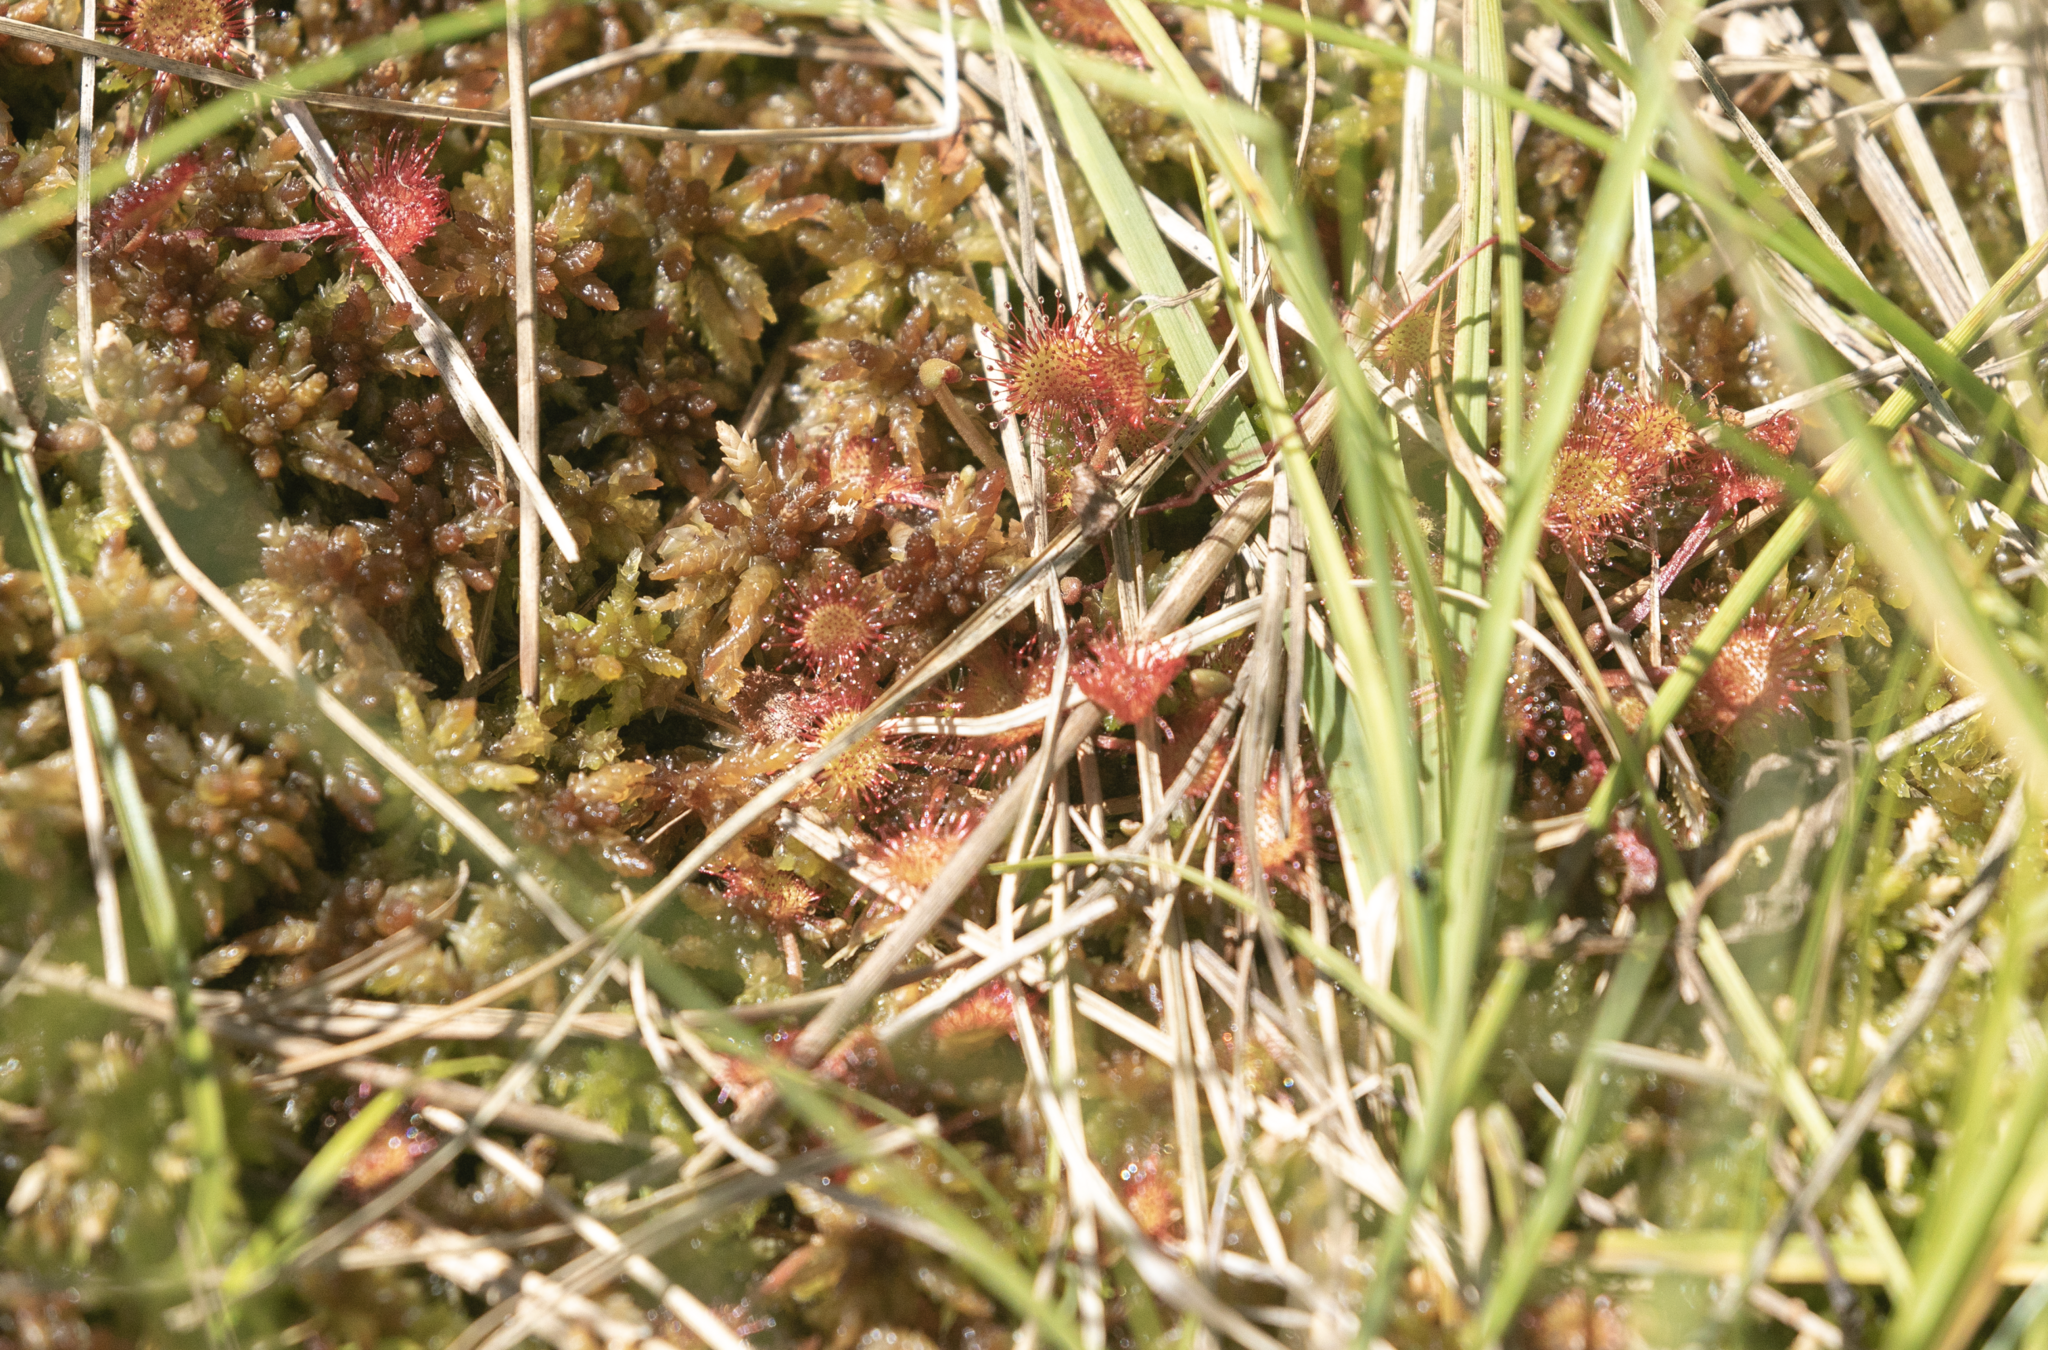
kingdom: Plantae
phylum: Tracheophyta
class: Magnoliopsida
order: Caryophyllales
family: Droseraceae
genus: Drosera
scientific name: Drosera rotundifolia
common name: Round-leaved sundew
